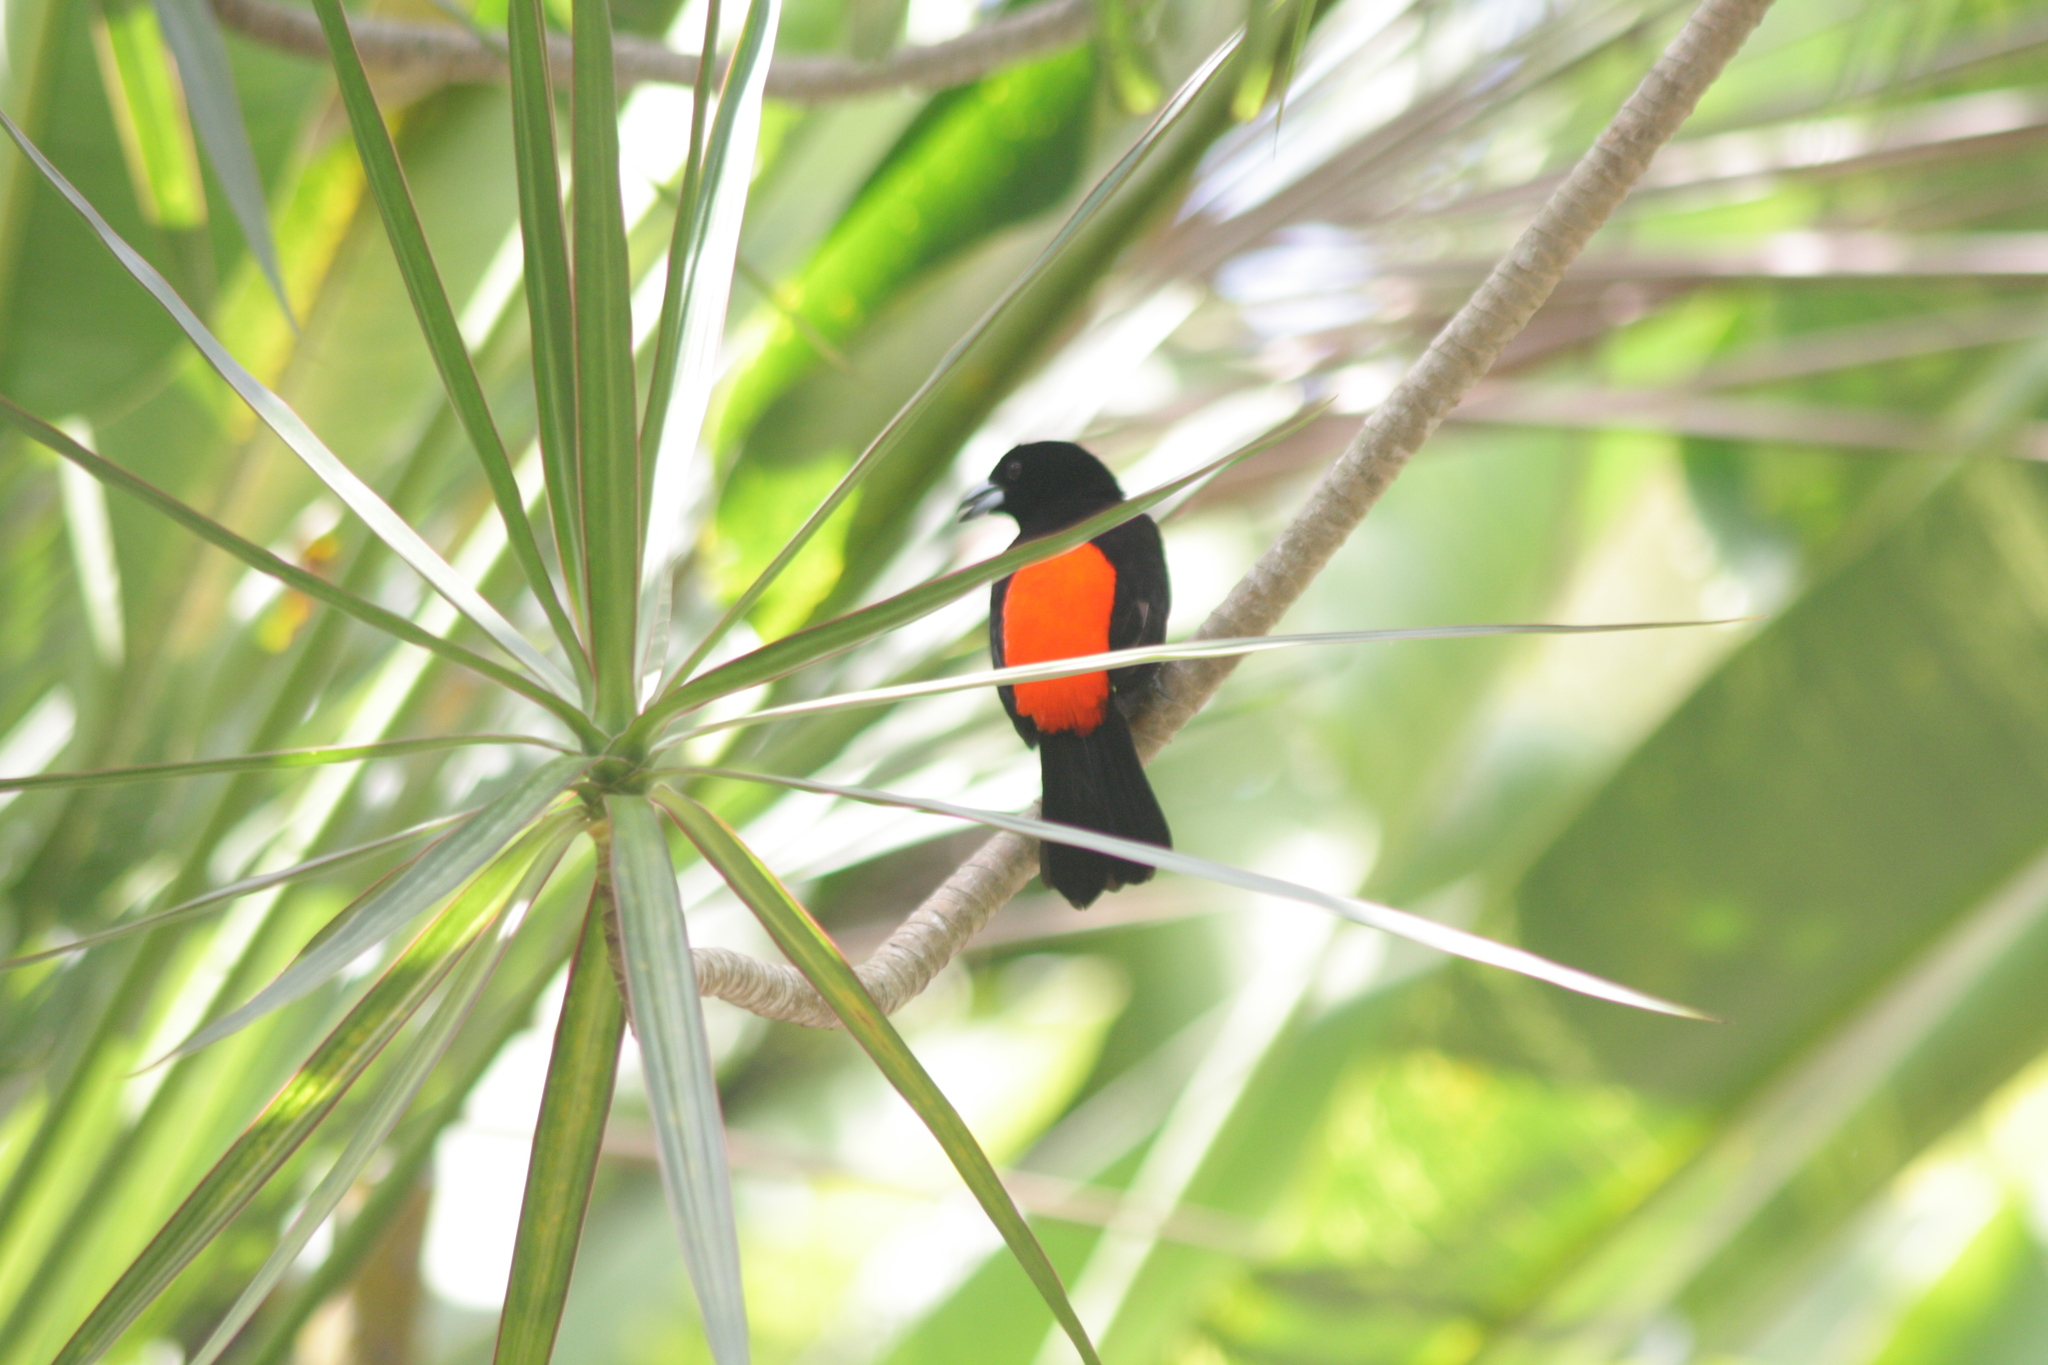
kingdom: Animalia
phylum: Chordata
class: Aves
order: Passeriformes
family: Thraupidae
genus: Ramphocelus
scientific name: Ramphocelus passerinii
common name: Passerini's tanager
